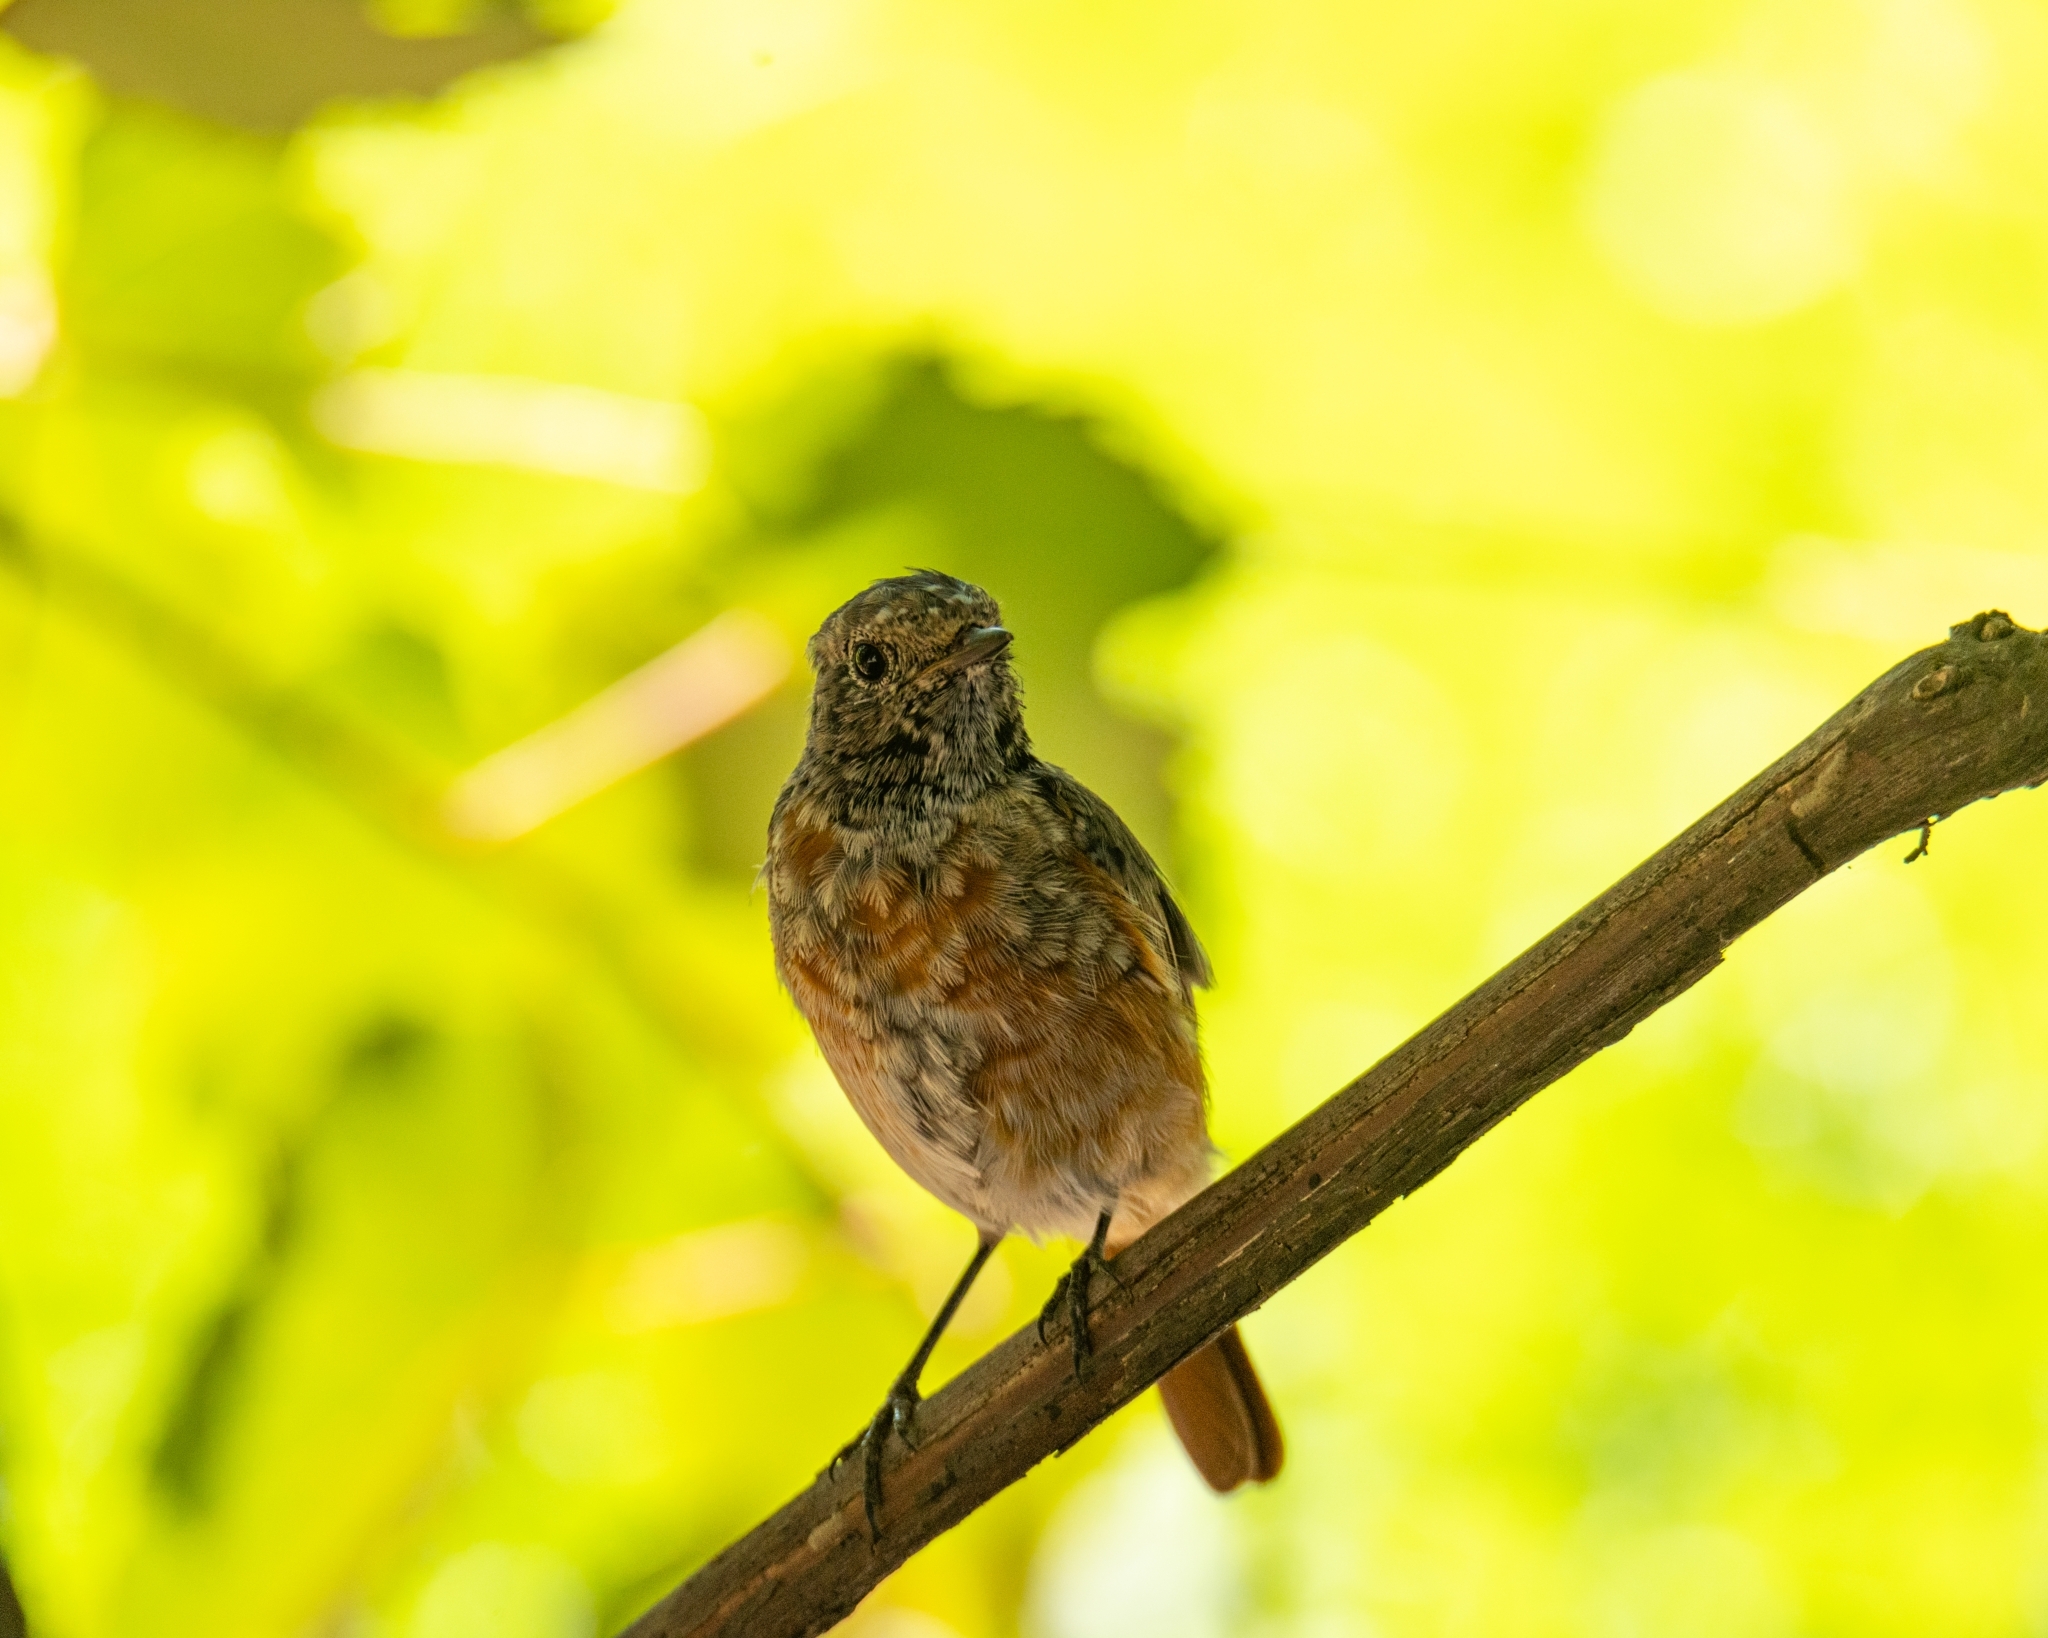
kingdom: Animalia
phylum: Chordata
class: Aves
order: Passeriformes
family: Muscicapidae
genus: Phoenicurus
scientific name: Phoenicurus phoenicurus
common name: Common redstart
